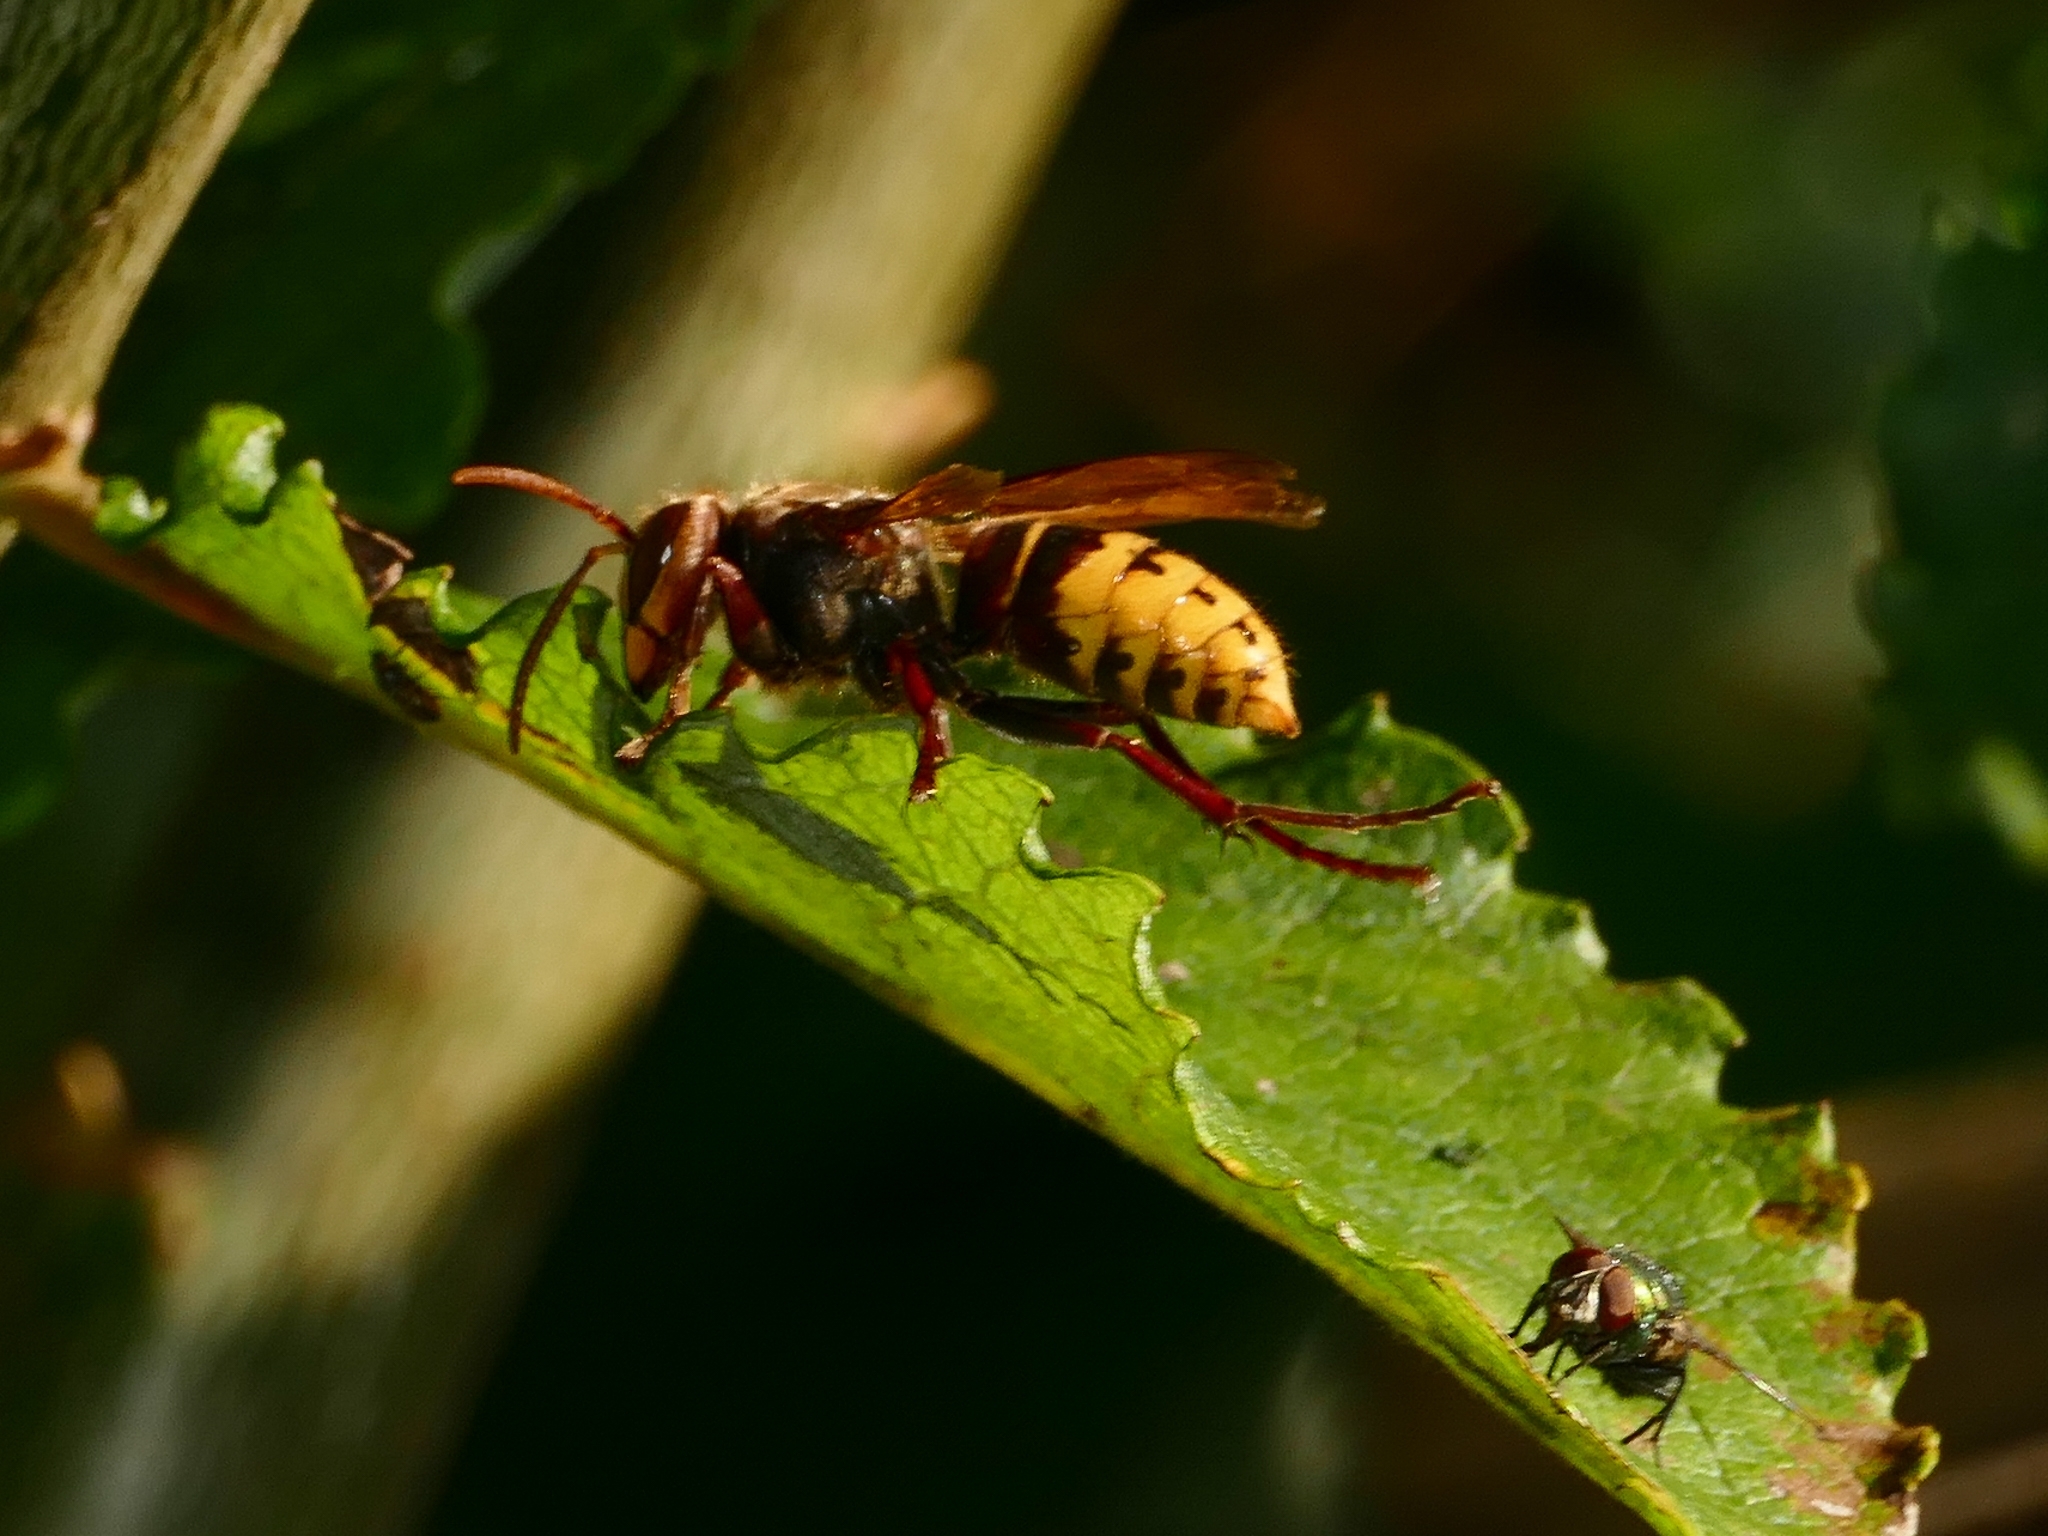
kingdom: Animalia
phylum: Arthropoda
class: Insecta
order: Hymenoptera
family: Vespidae
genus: Vespa
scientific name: Vespa crabro
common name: Hornet
